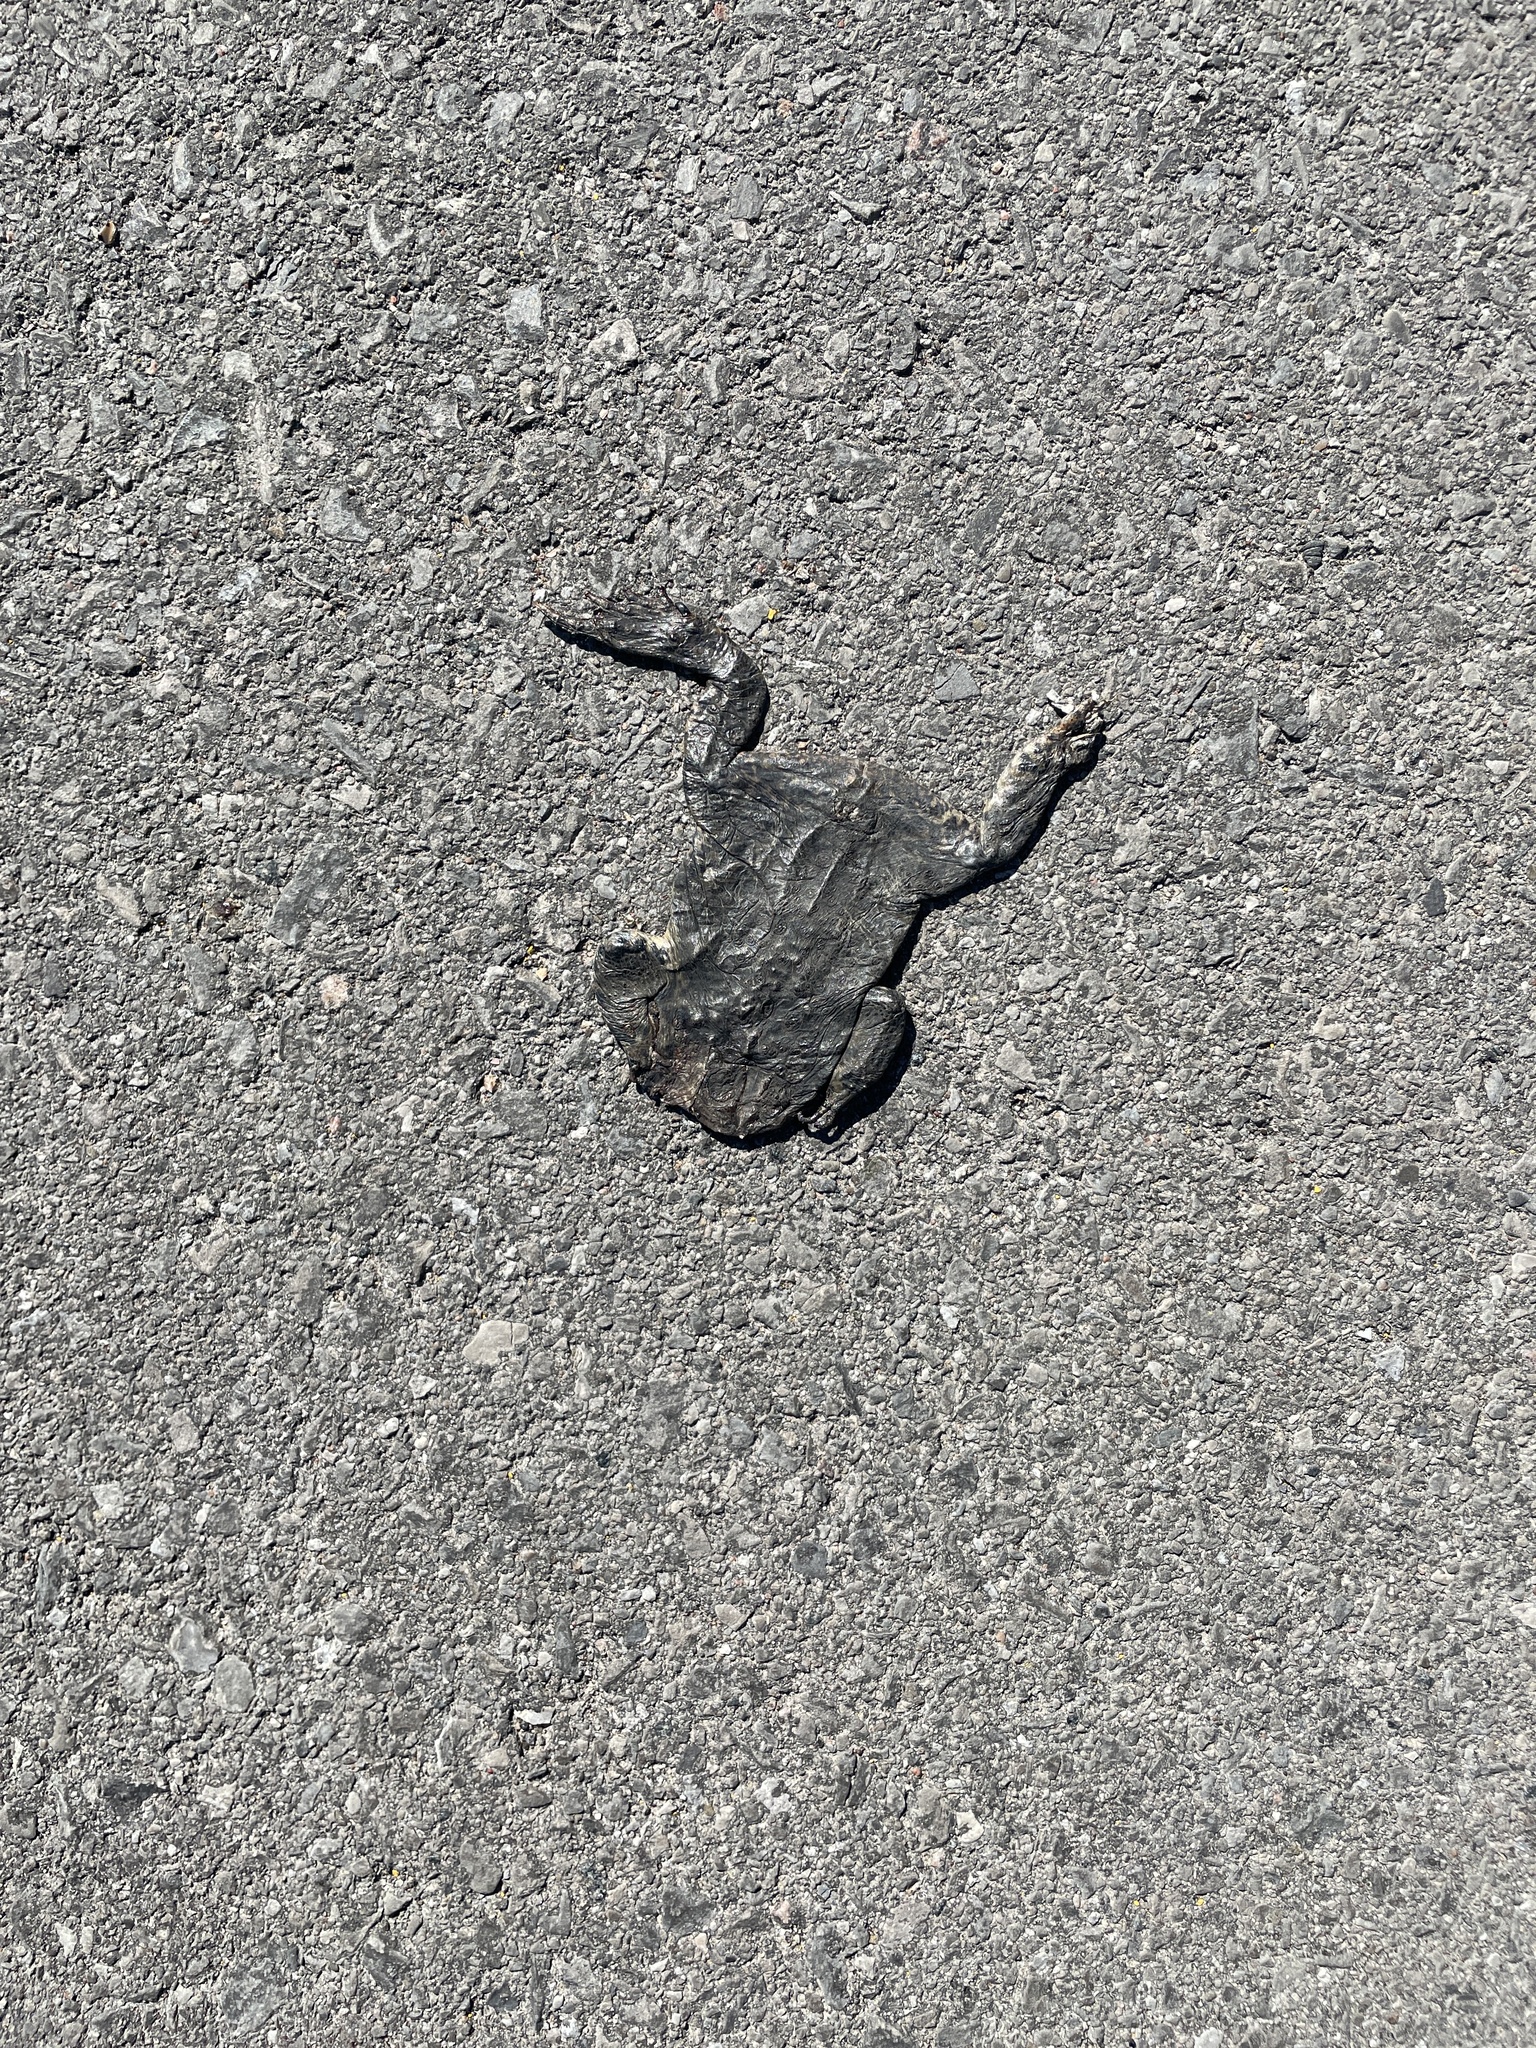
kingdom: Animalia
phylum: Chordata
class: Amphibia
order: Anura
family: Bufonidae
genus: Anaxyrus
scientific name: Anaxyrus americanus
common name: American toad
